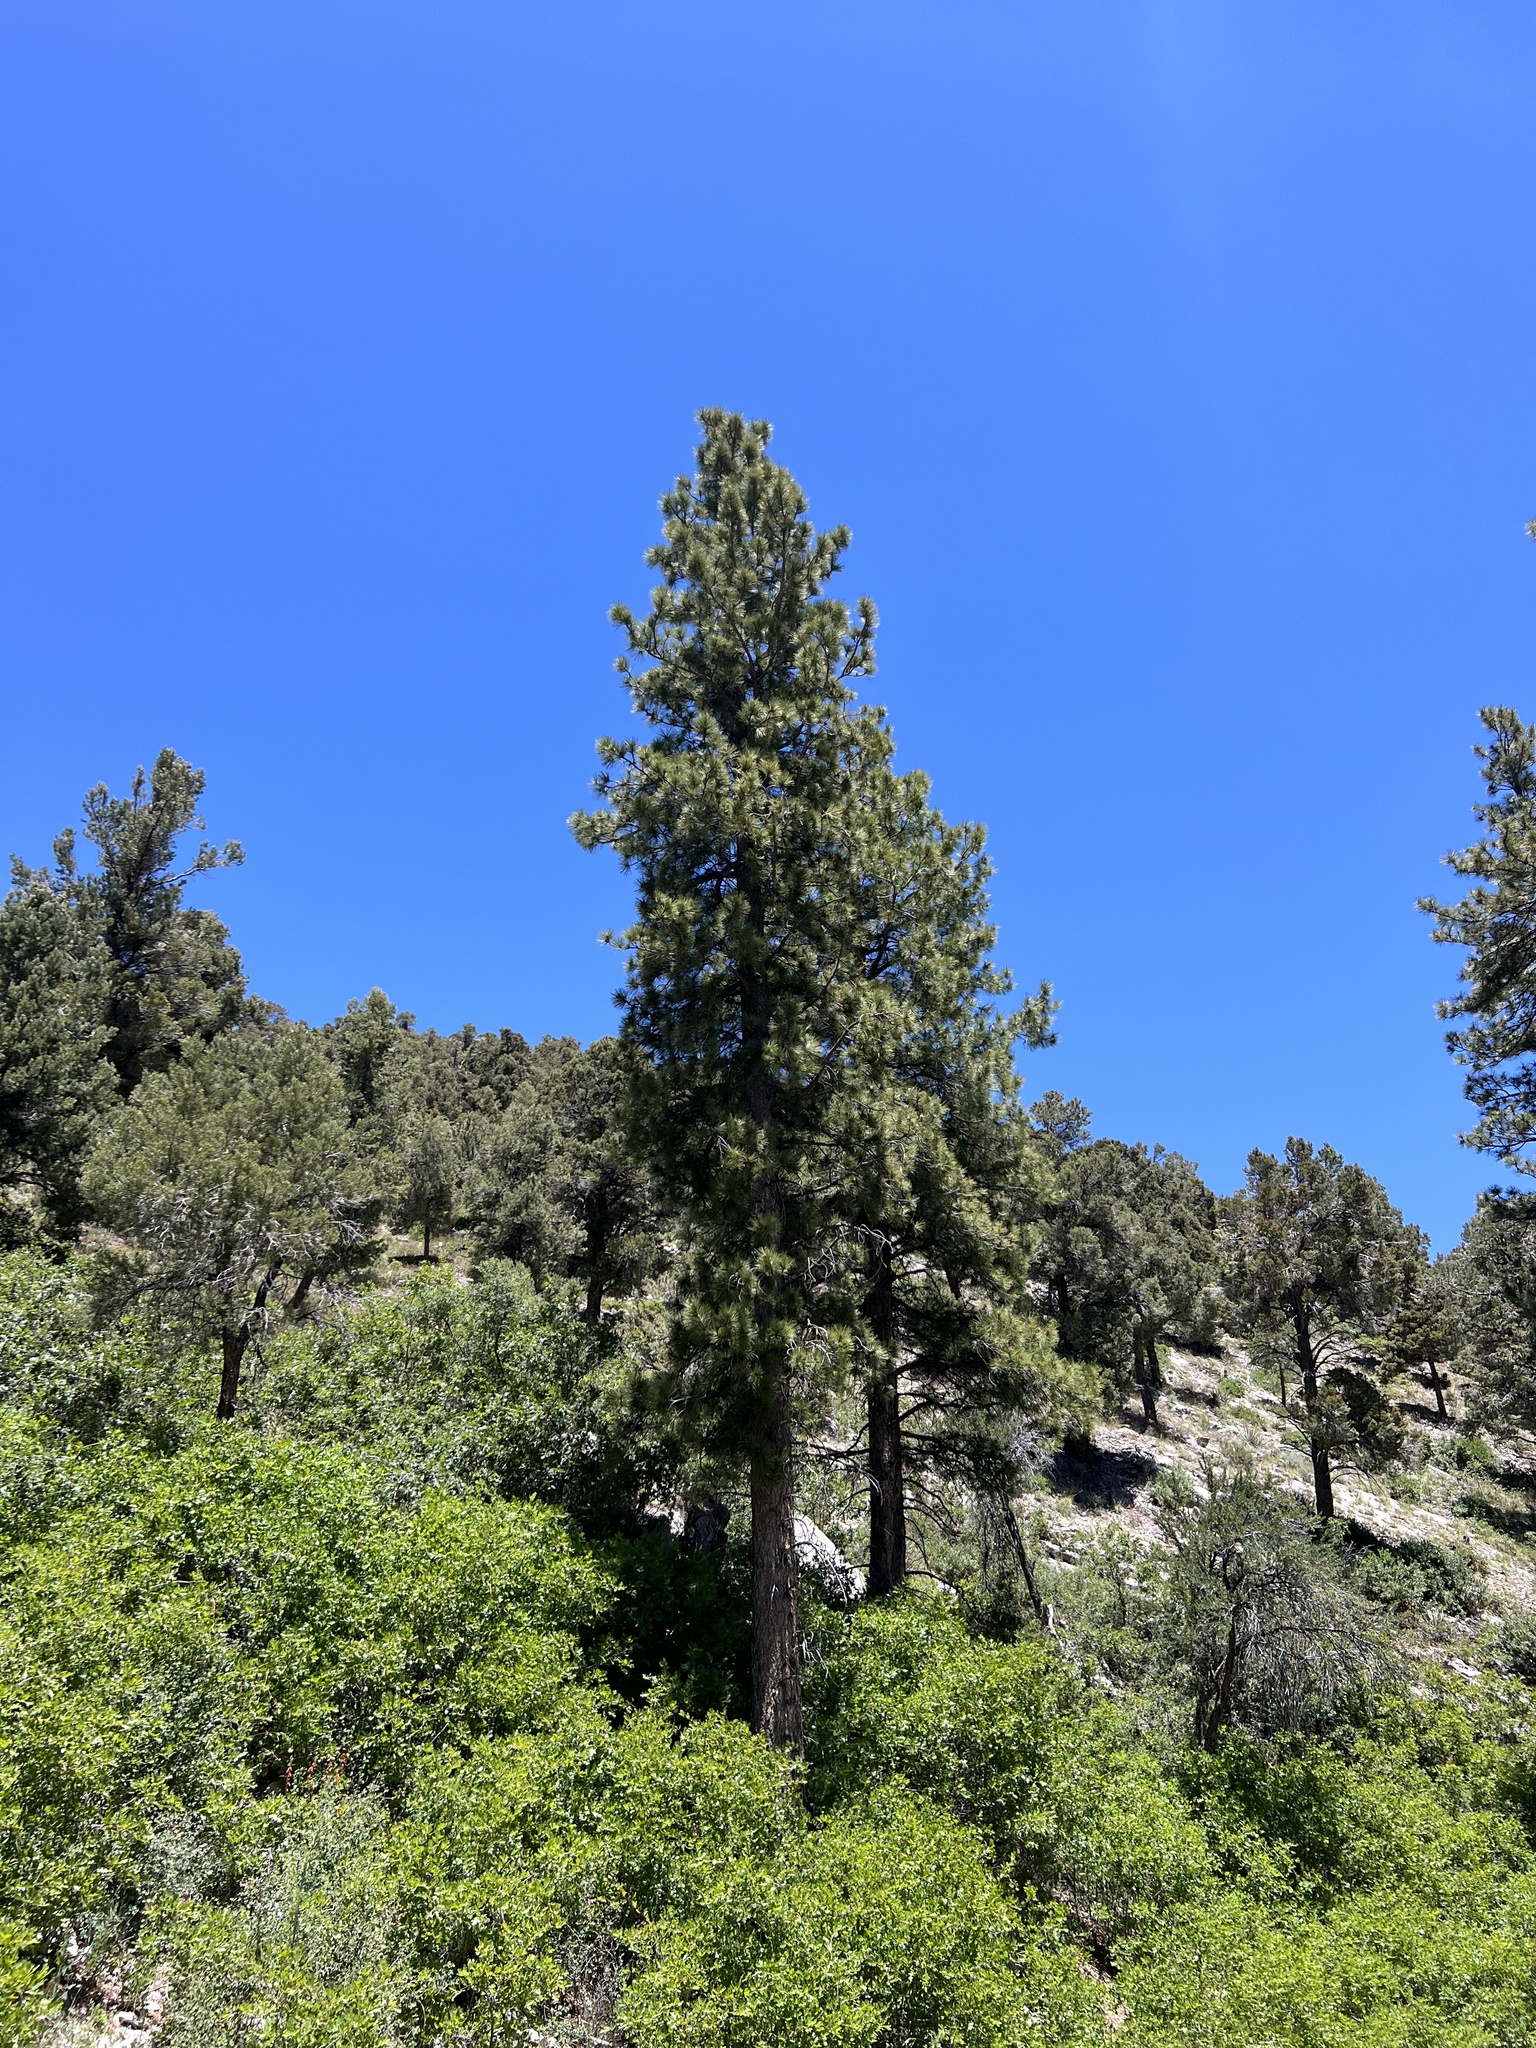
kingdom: Plantae
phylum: Tracheophyta
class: Pinopsida
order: Pinales
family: Pinaceae
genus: Pinus
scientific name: Pinus ponderosa
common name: Western yellow-pine
